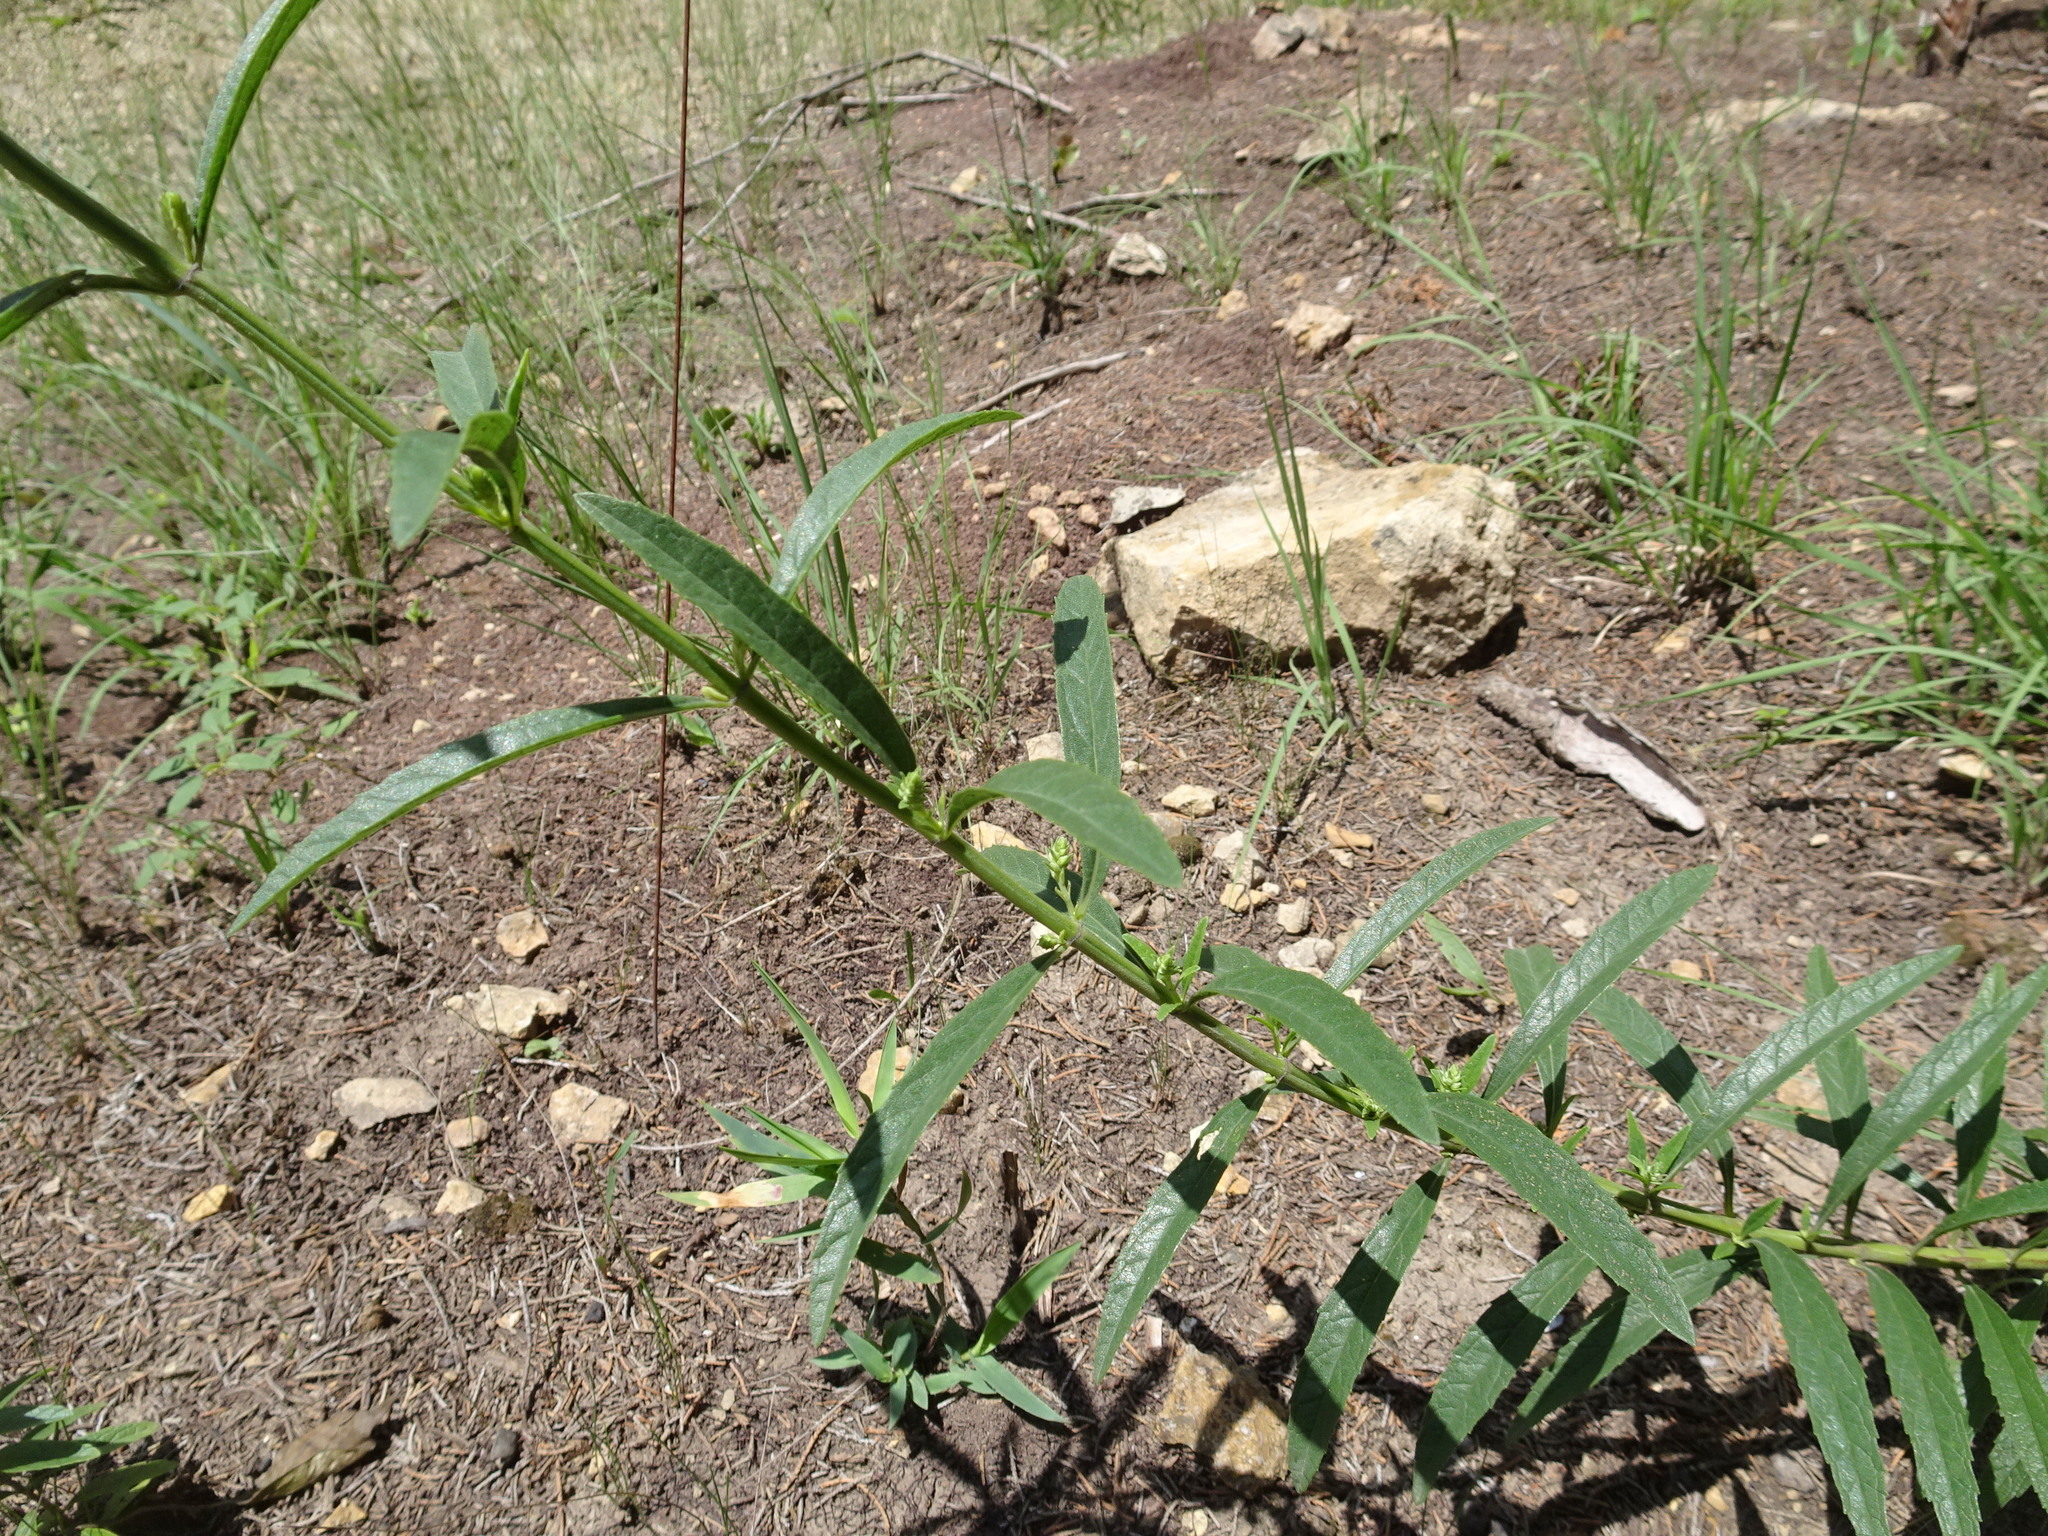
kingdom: Plantae
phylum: Tracheophyta
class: Magnoliopsida
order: Lamiales
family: Lamiaceae
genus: Salvia
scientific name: Salvia azurea
